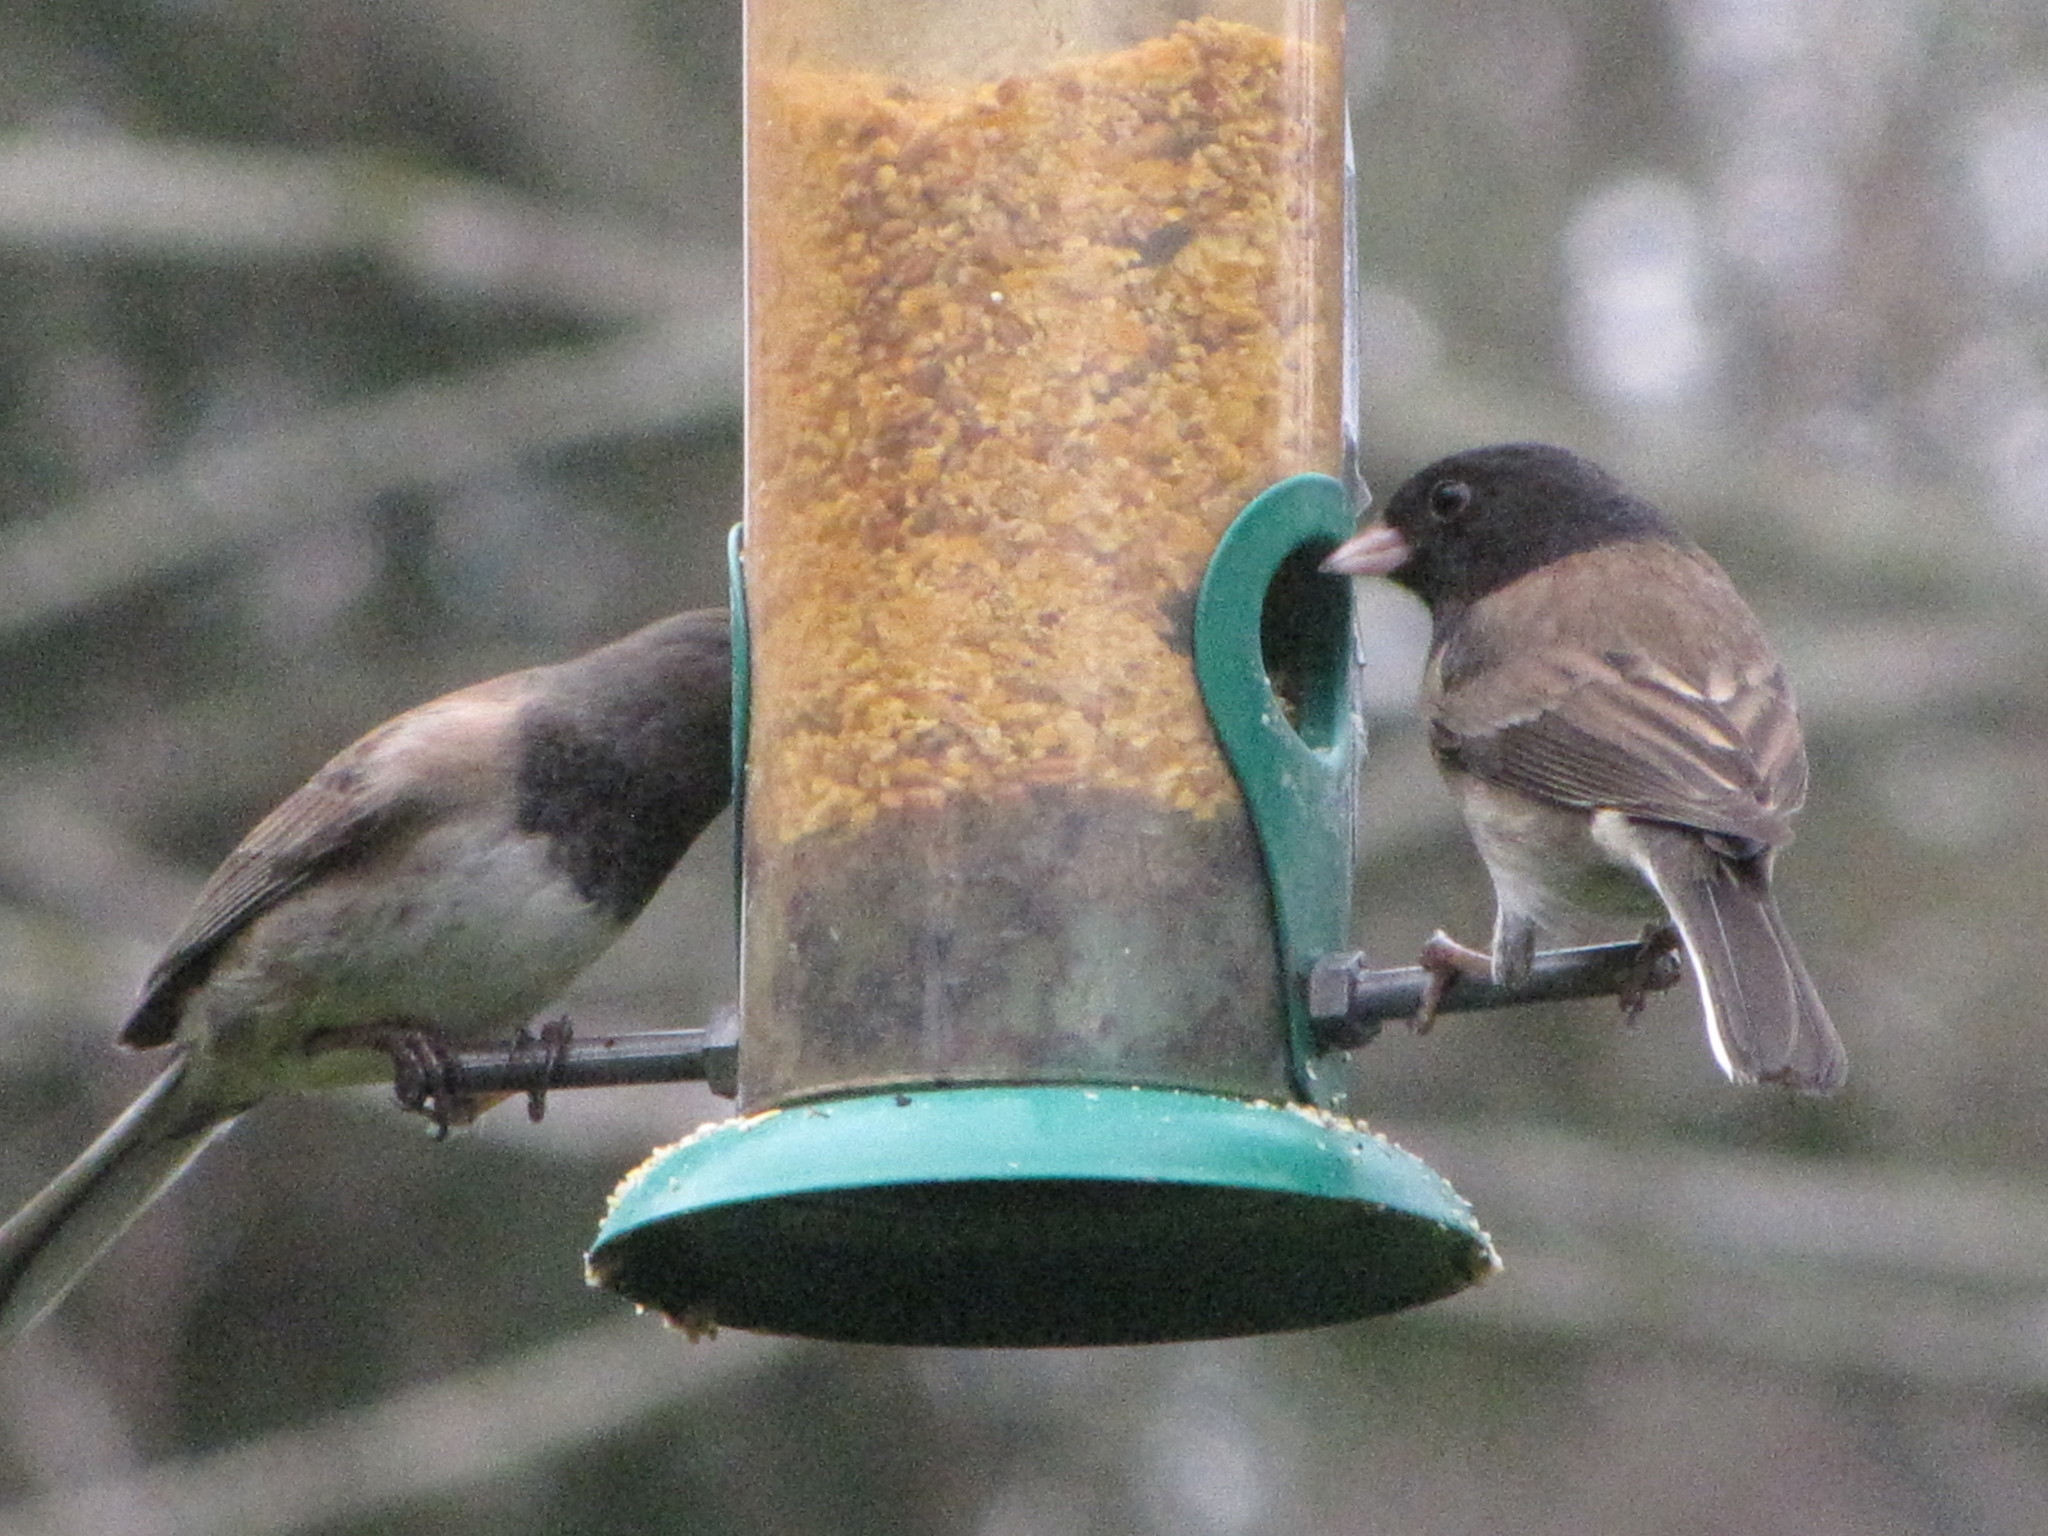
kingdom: Animalia
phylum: Chordata
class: Aves
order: Passeriformes
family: Passerellidae
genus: Junco
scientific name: Junco hyemalis
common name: Dark-eyed junco
